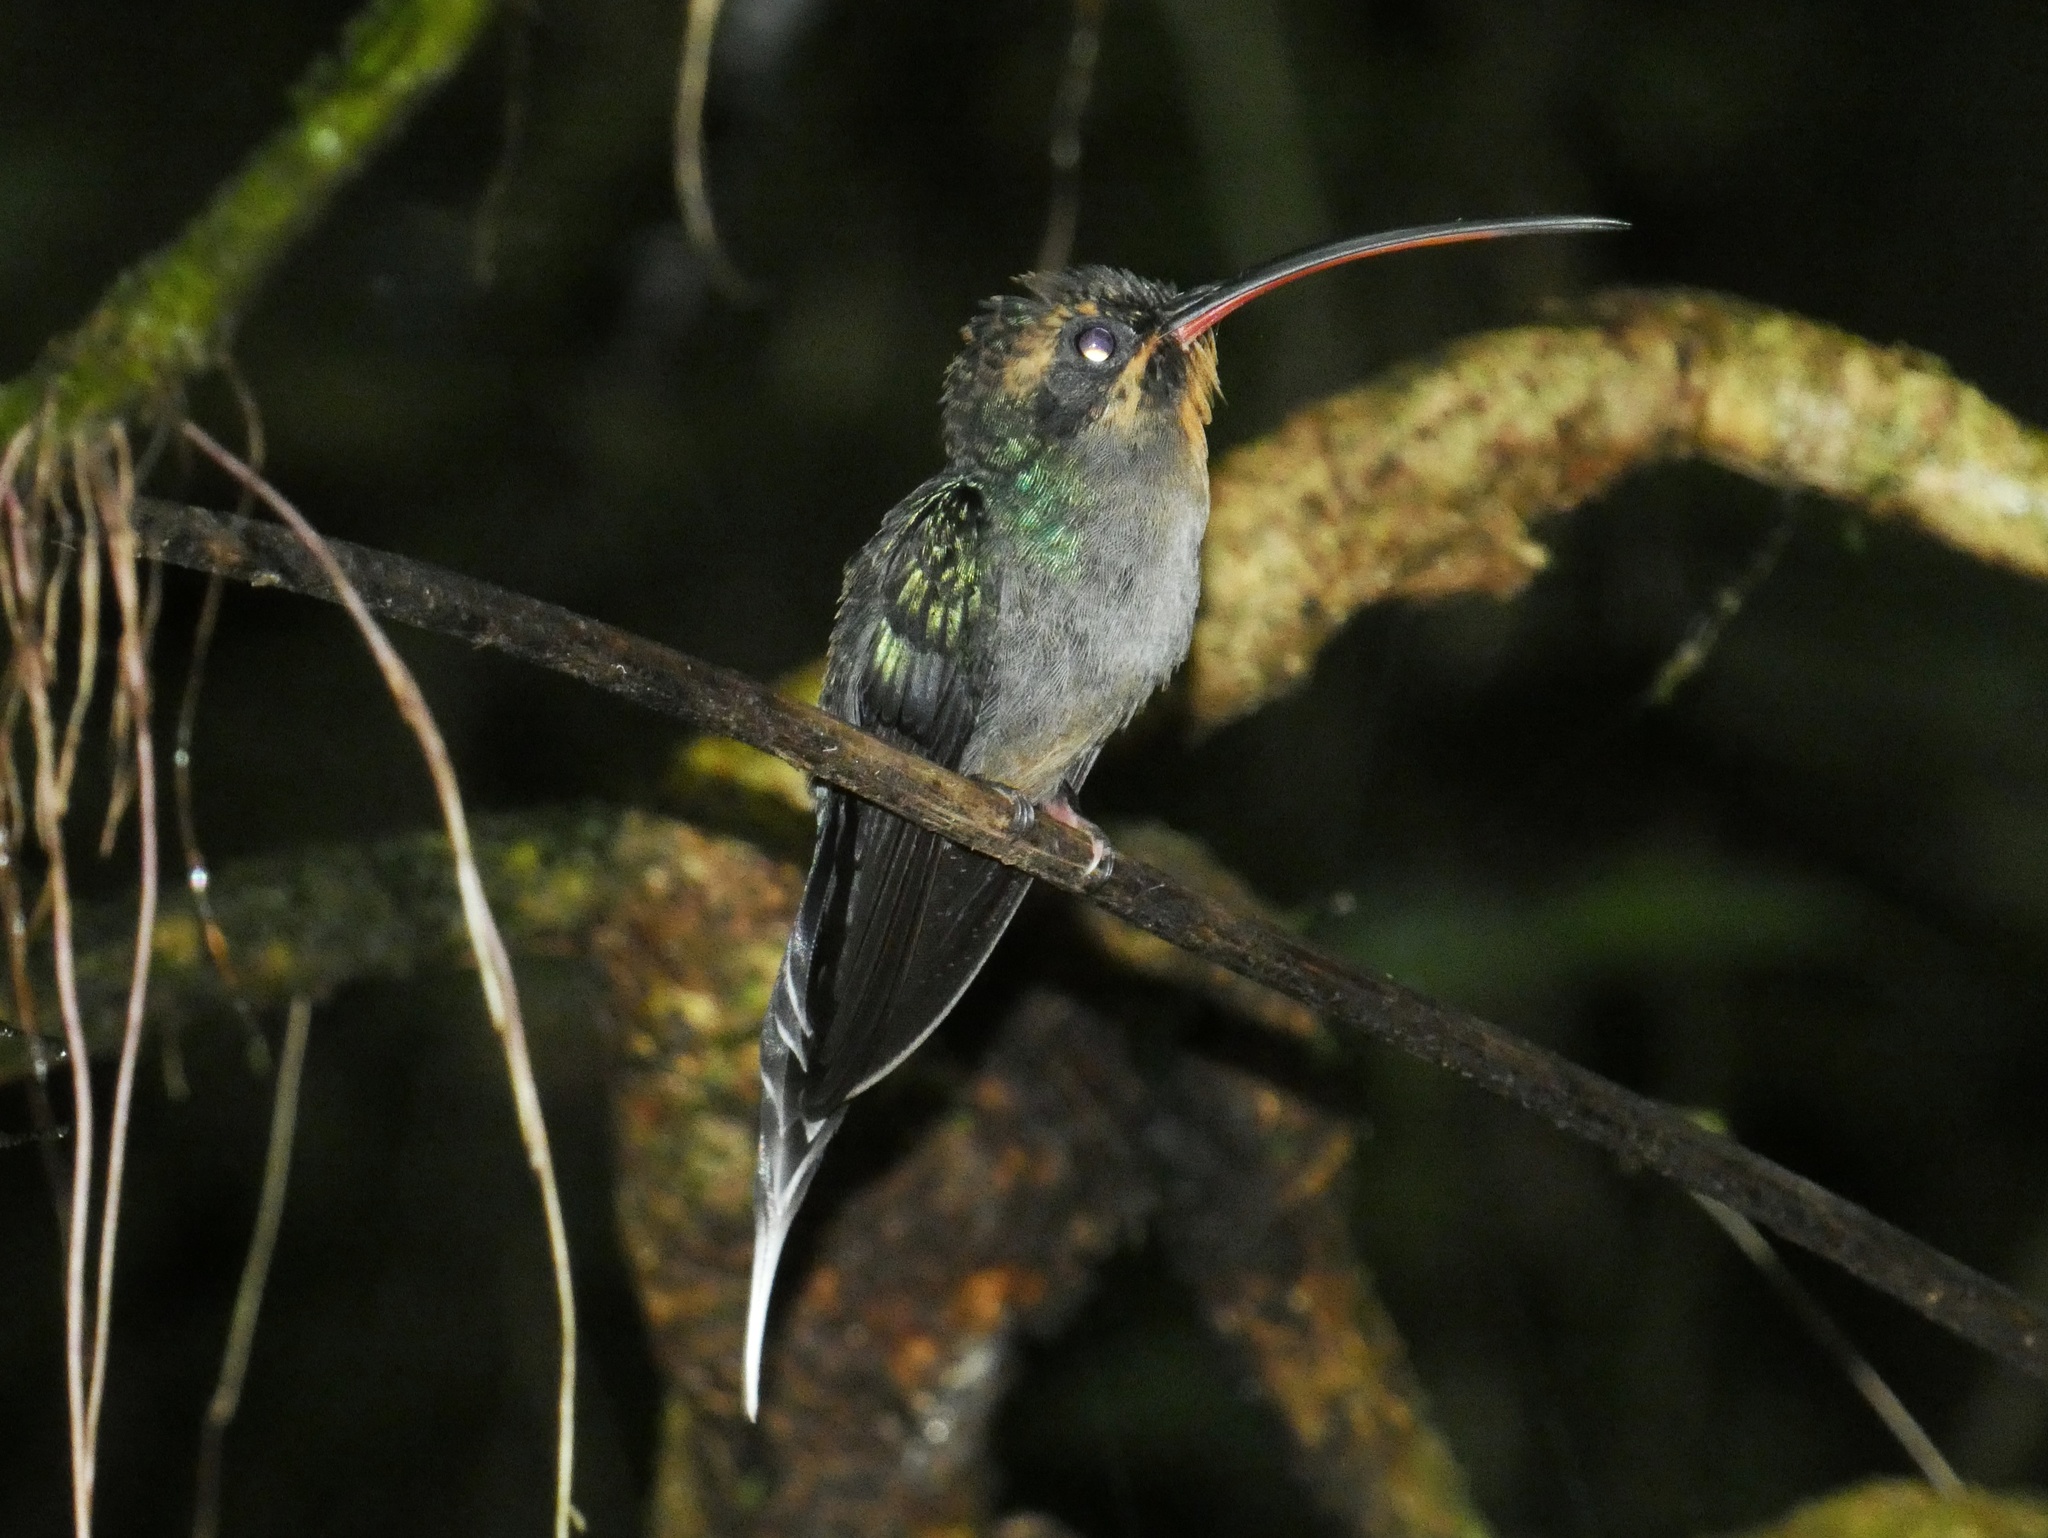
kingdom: Animalia
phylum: Chordata
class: Aves
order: Apodiformes
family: Trochilidae
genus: Phaethornis
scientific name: Phaethornis guy
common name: Green hermit
